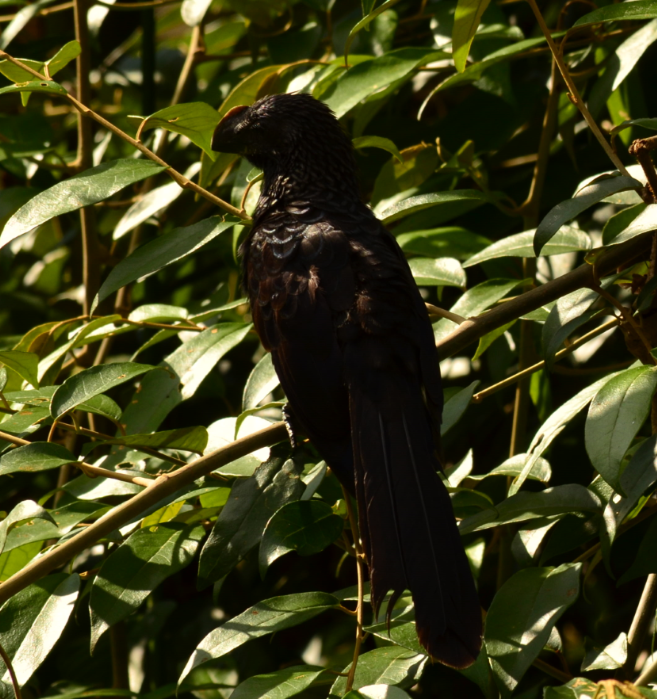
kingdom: Animalia
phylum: Chordata
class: Aves
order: Cuculiformes
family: Cuculidae
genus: Crotophaga
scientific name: Crotophaga ani
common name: Smooth-billed ani
